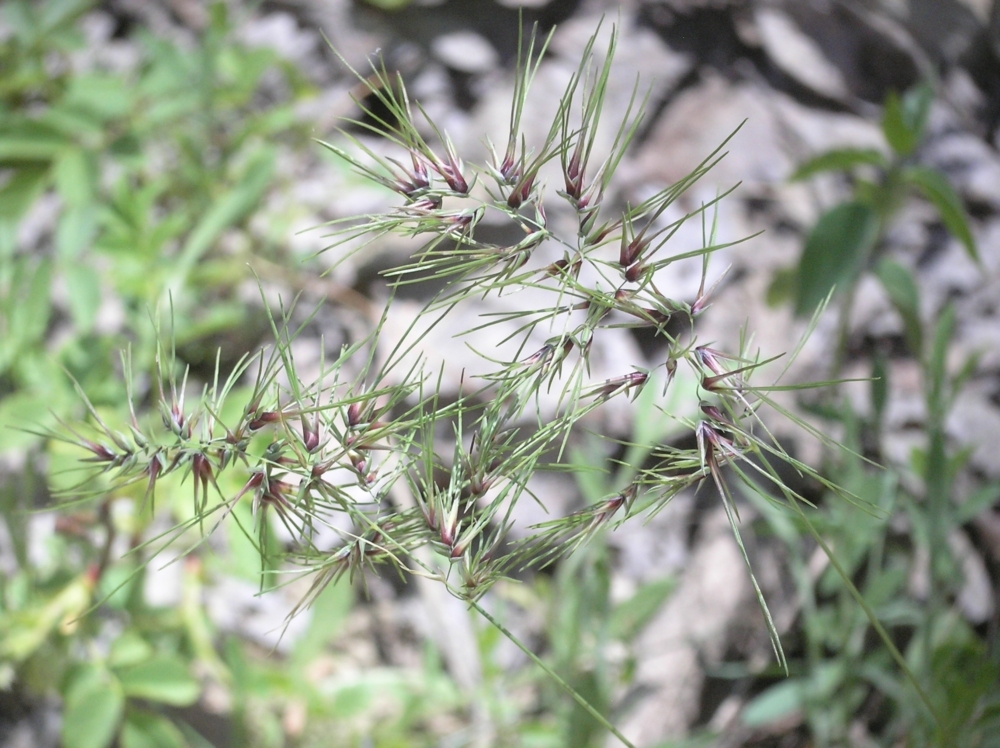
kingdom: Plantae
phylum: Tracheophyta
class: Liliopsida
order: Poales
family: Poaceae
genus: Poa
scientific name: Poa bulbosa
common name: Bulbous bluegrass
